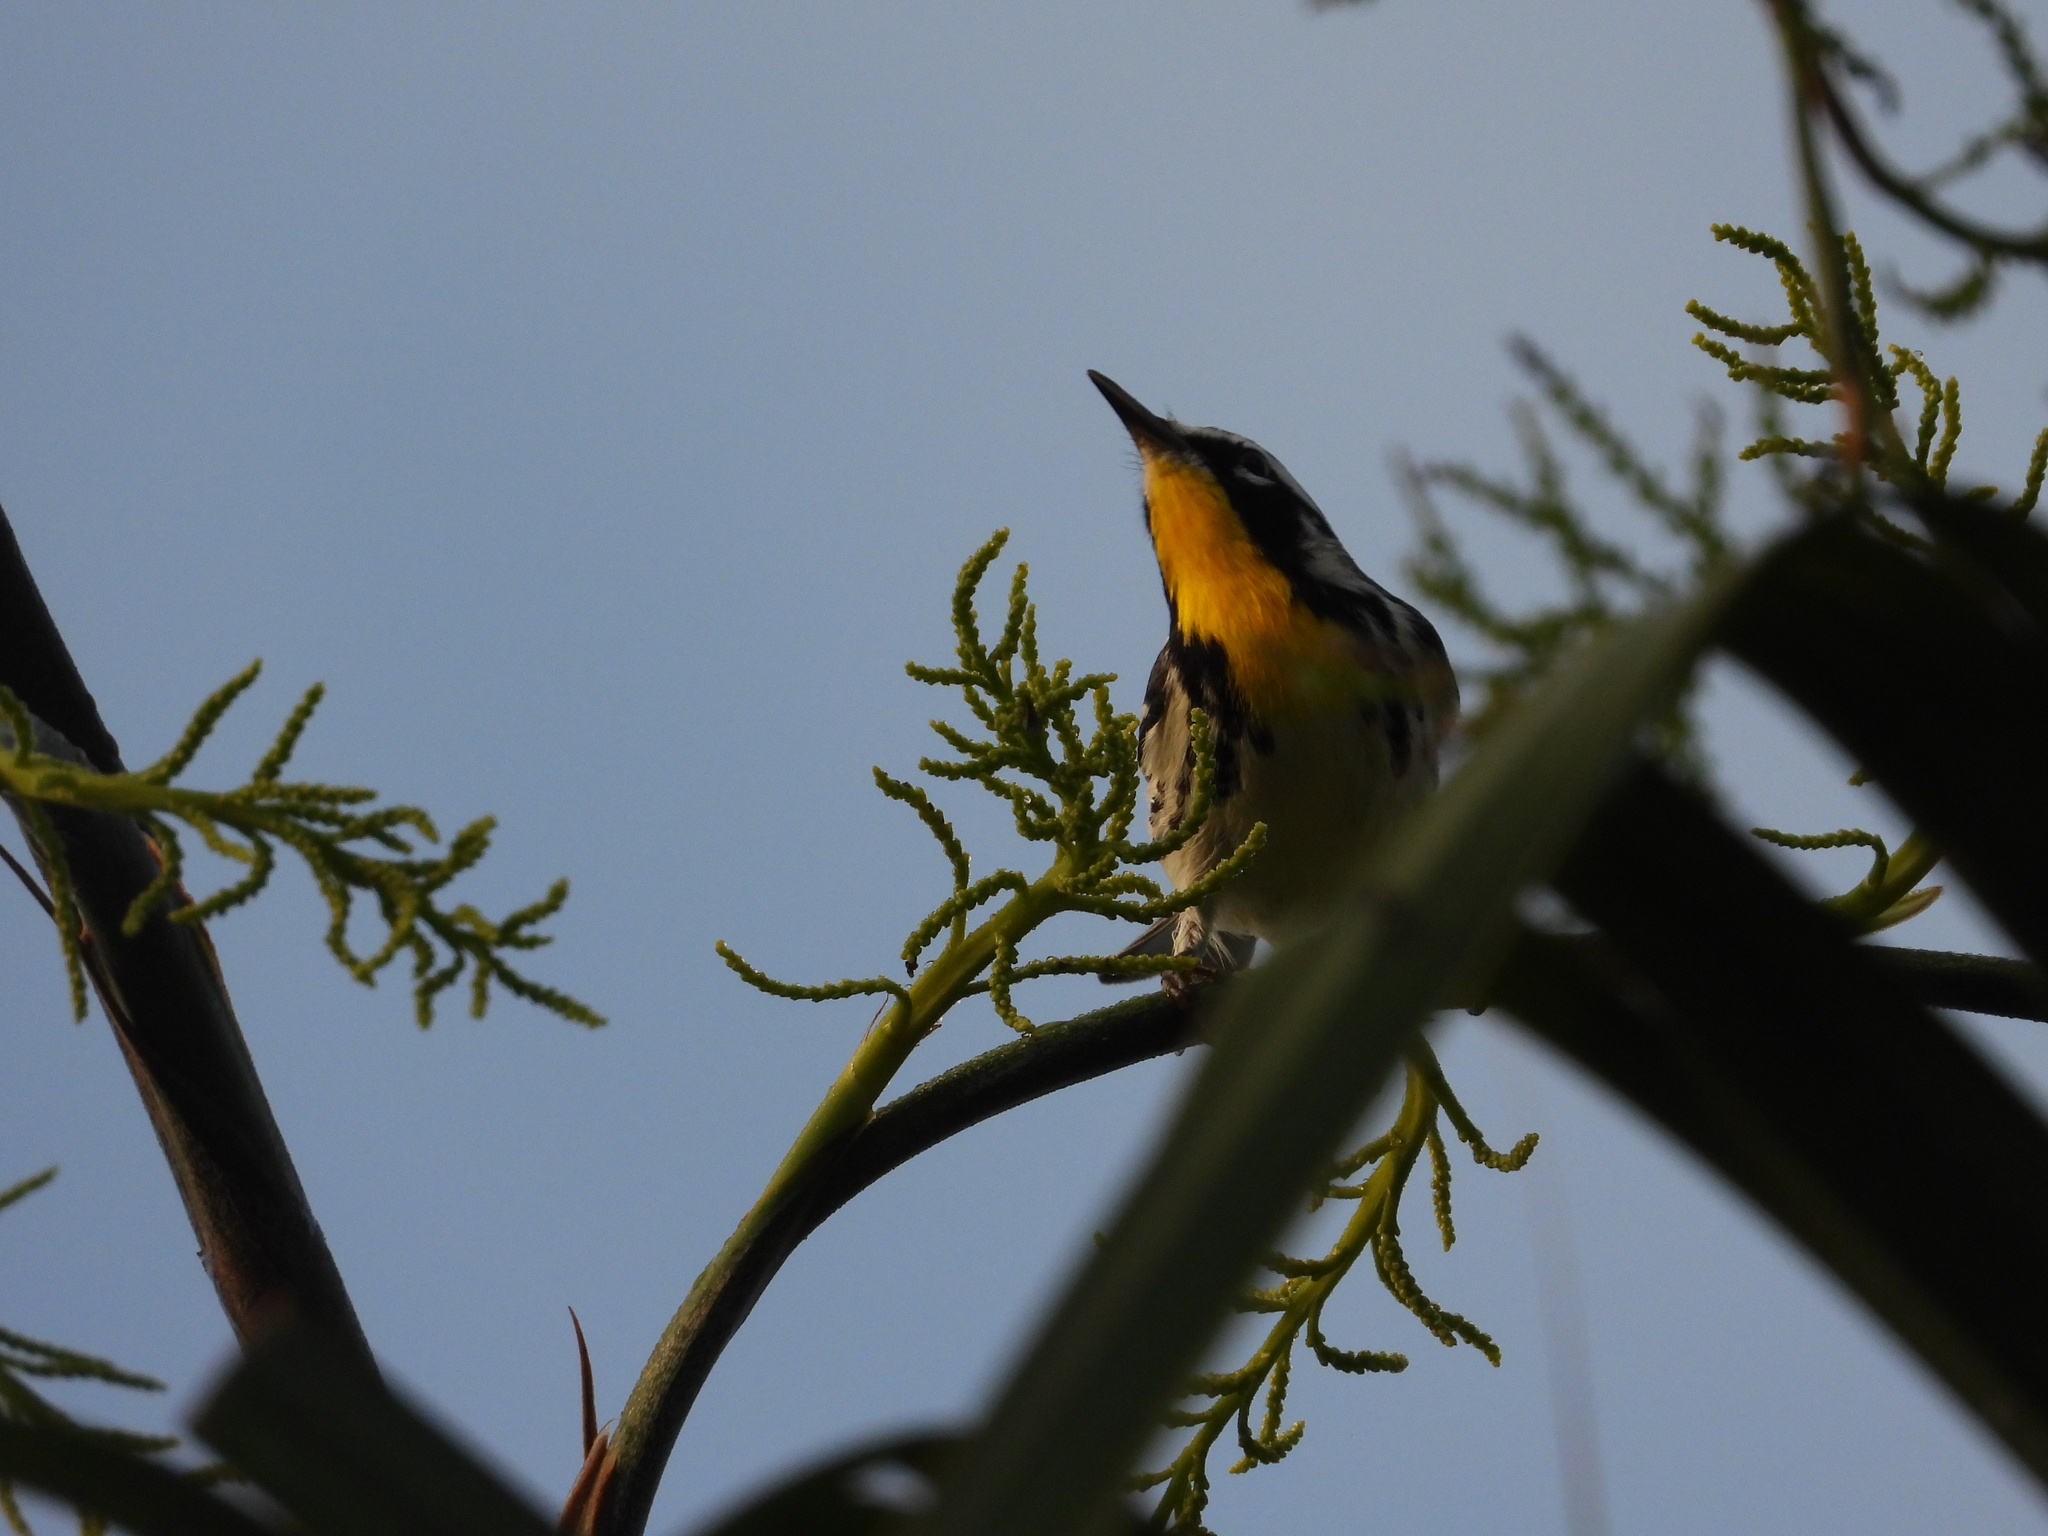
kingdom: Animalia
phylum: Chordata
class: Aves
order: Passeriformes
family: Parulidae
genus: Setophaga
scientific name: Setophaga dominica
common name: Yellow-throated warbler
